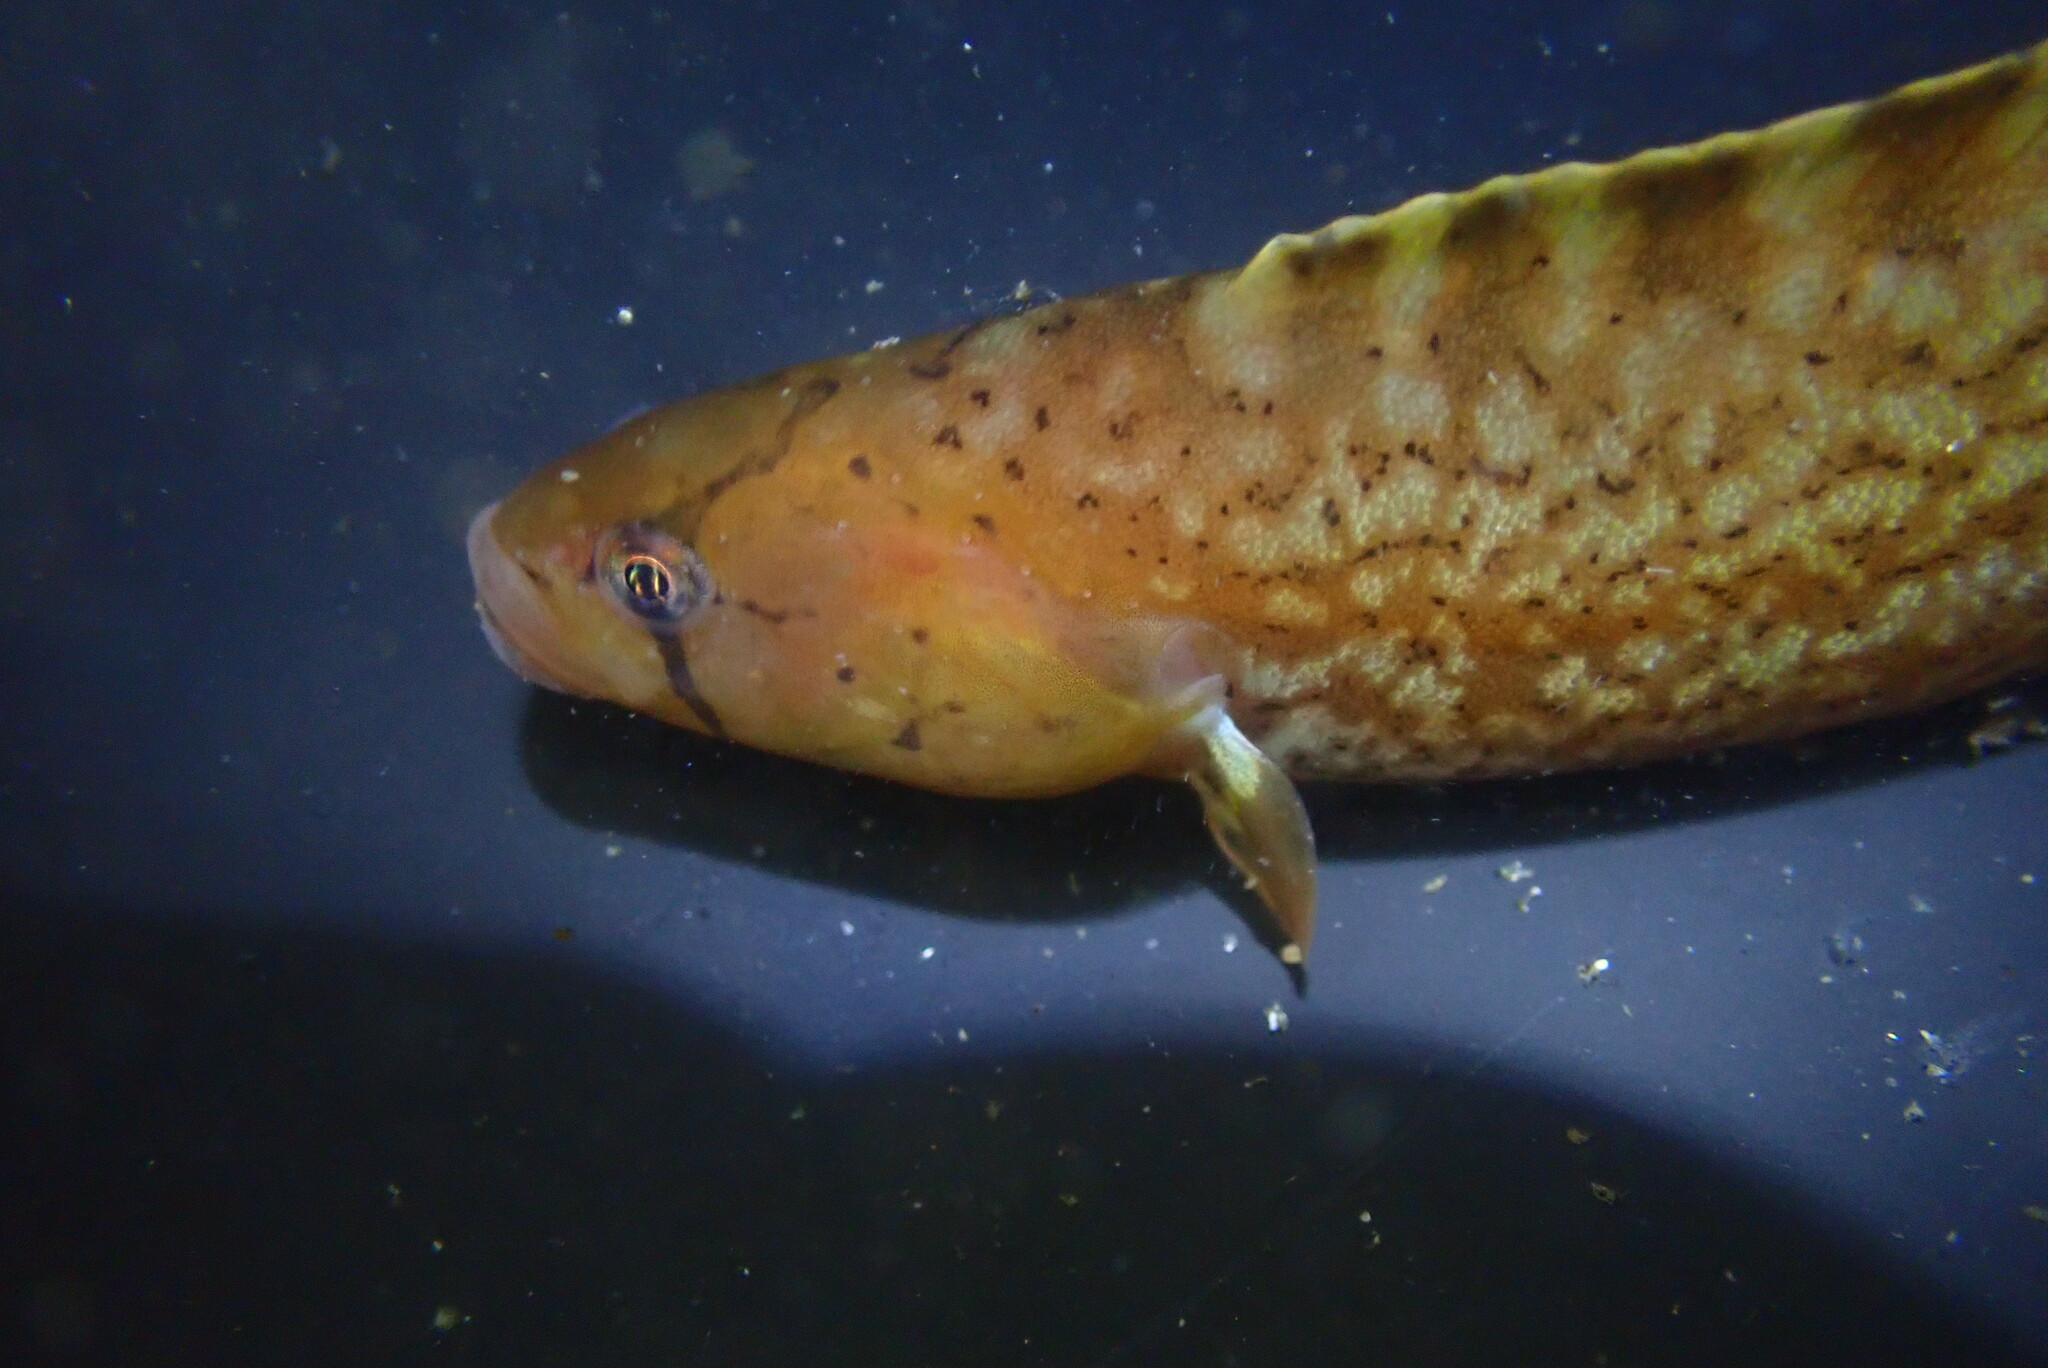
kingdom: Animalia
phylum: Chordata
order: Perciformes
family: Pholidae
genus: Apodichthys
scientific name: Apodichthys flavidus
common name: Penpoint gunnel
